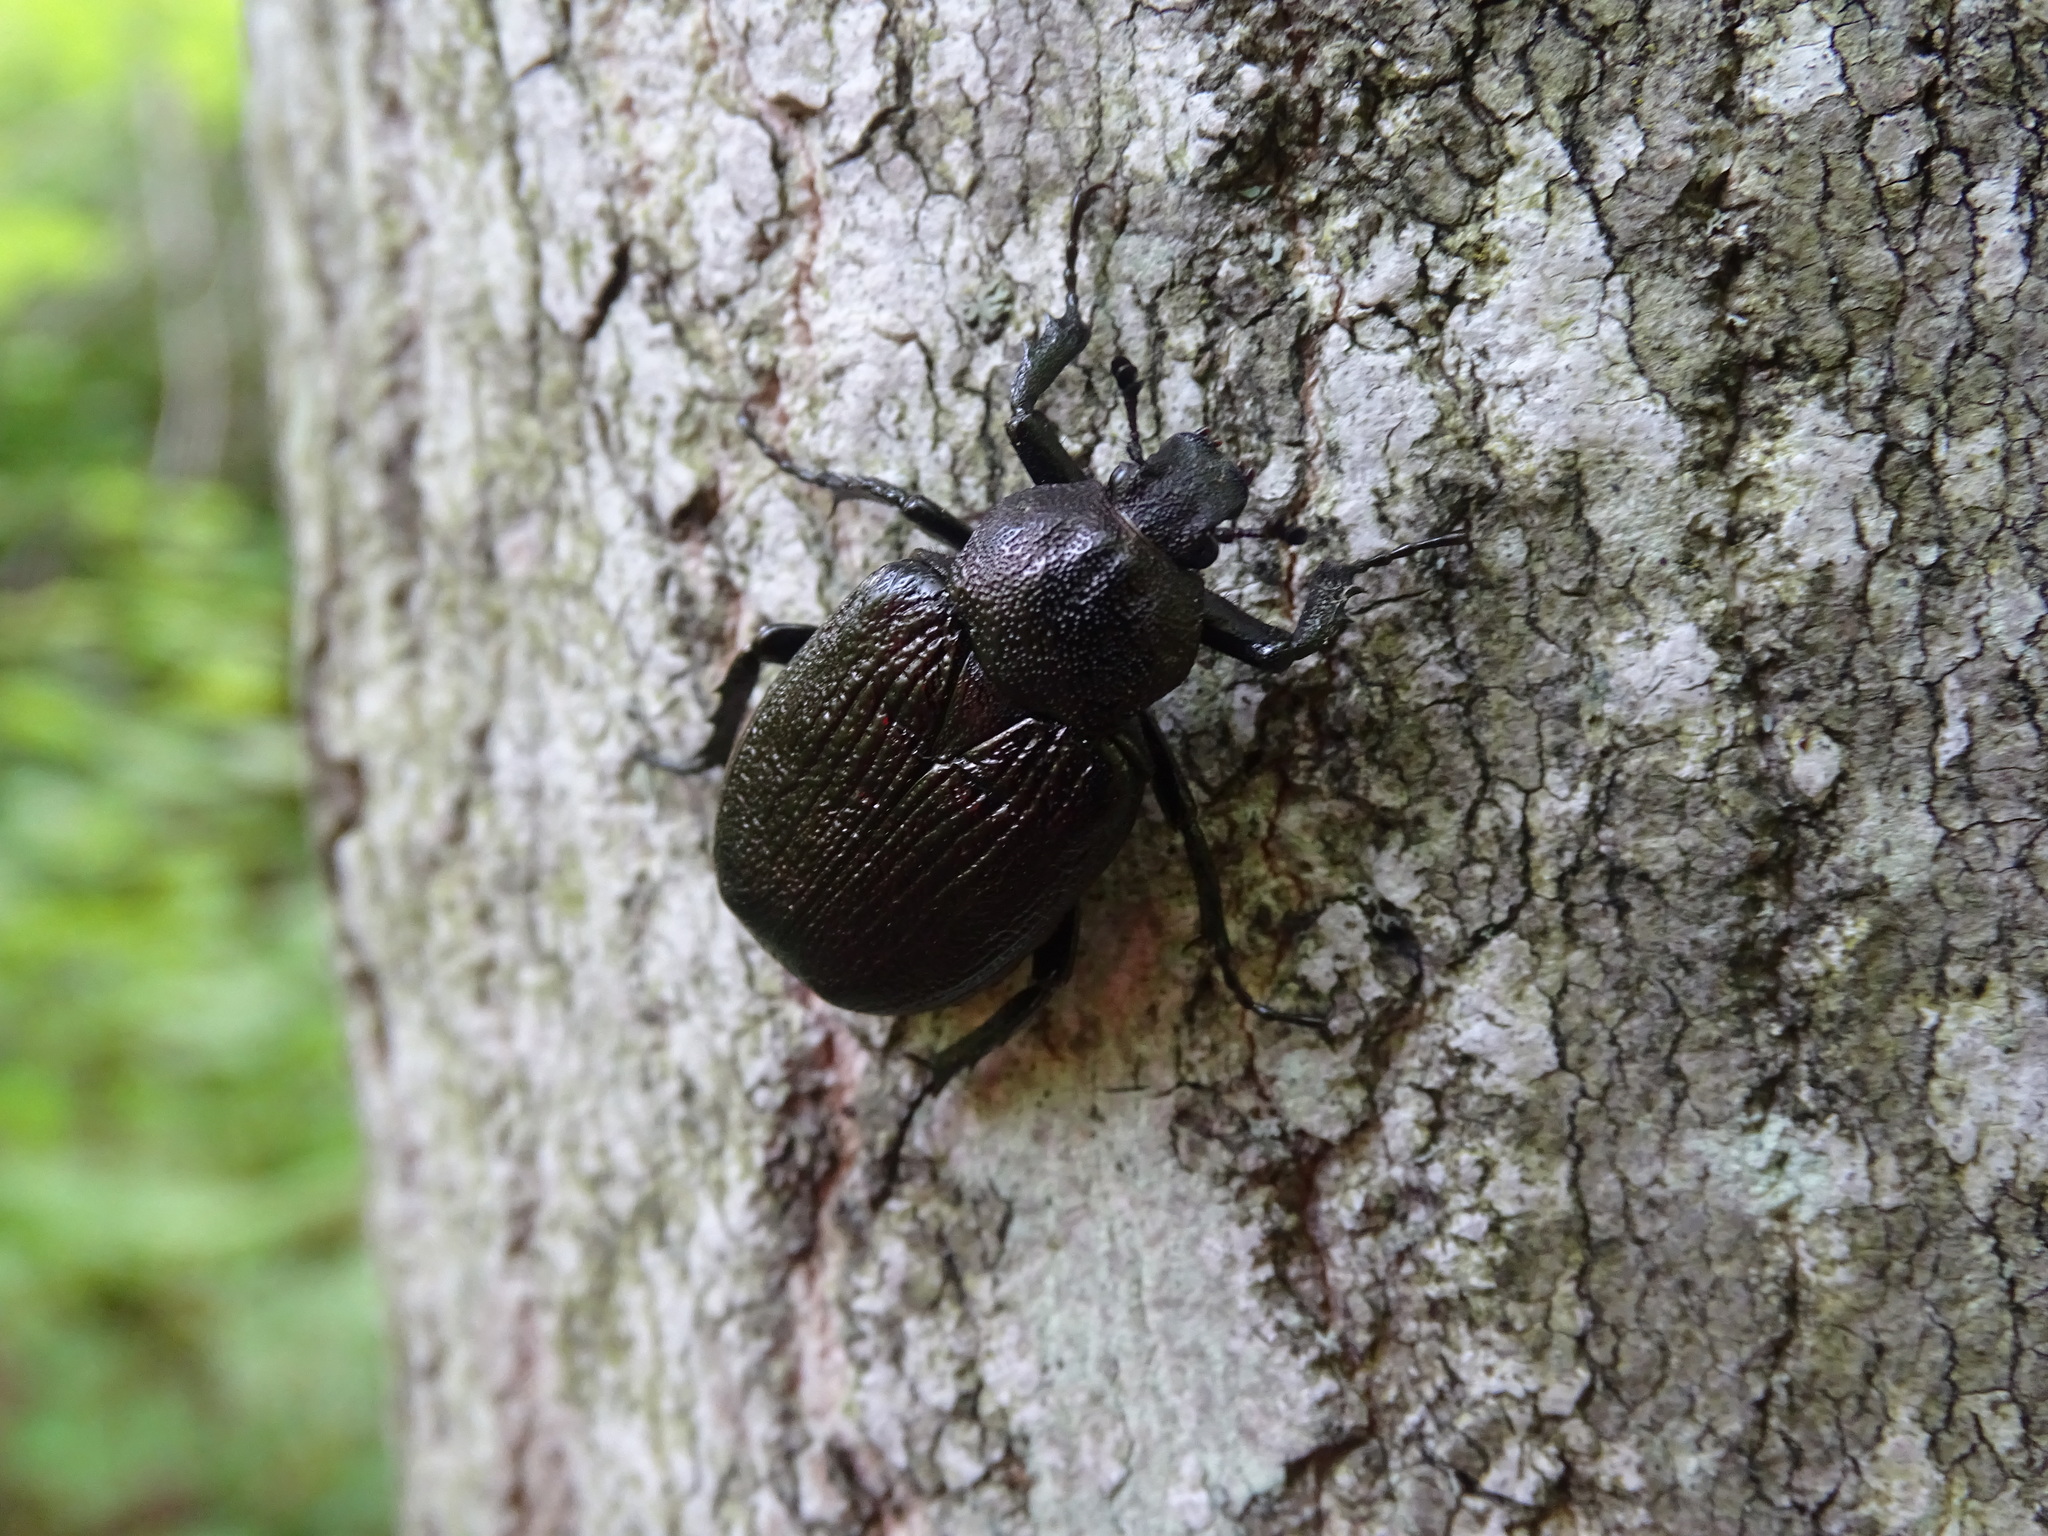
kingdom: Animalia
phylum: Arthropoda
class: Insecta
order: Coleoptera
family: Scarabaeidae
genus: Osmoderma
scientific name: Osmoderma scabra
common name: Rough hermit beetle
